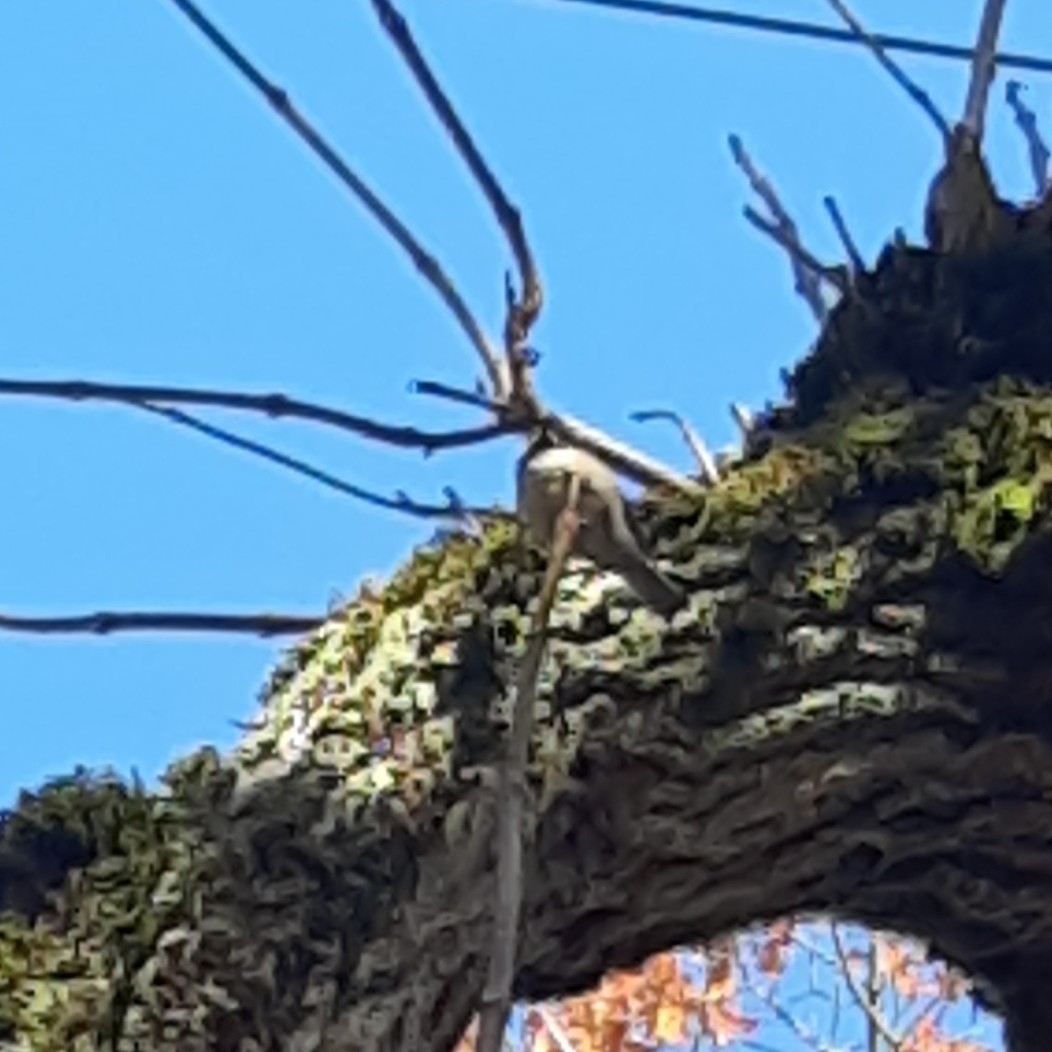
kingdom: Animalia
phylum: Chordata
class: Aves
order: Passeriformes
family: Paridae
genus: Poecile
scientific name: Poecile atricapillus
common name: Black-capped chickadee
